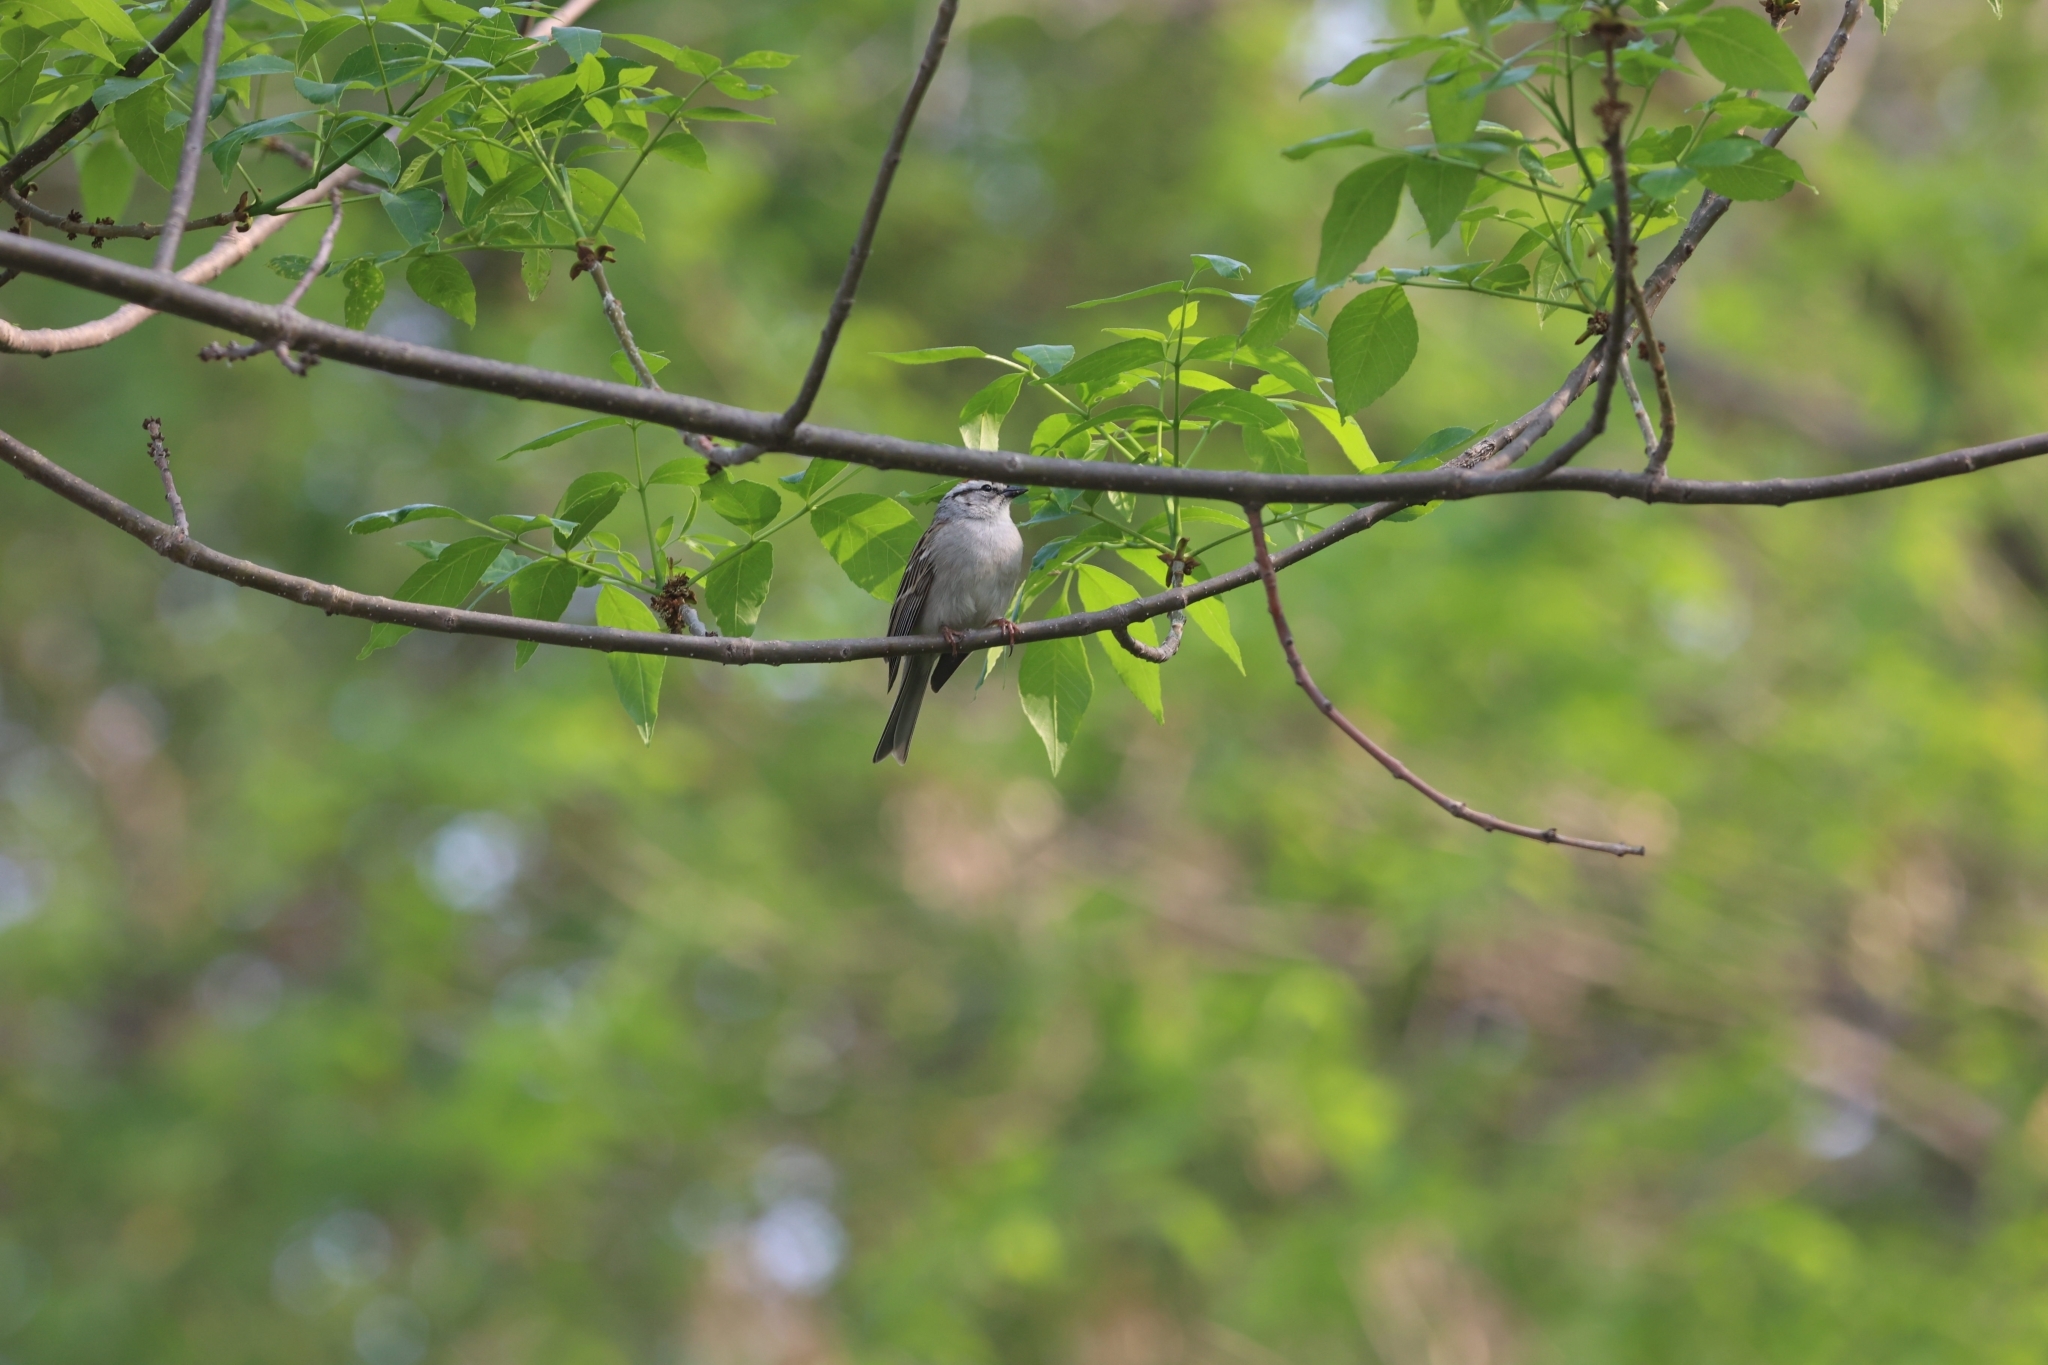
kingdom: Animalia
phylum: Chordata
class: Aves
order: Passeriformes
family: Passerellidae
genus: Spizella
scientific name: Spizella passerina
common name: Chipping sparrow
